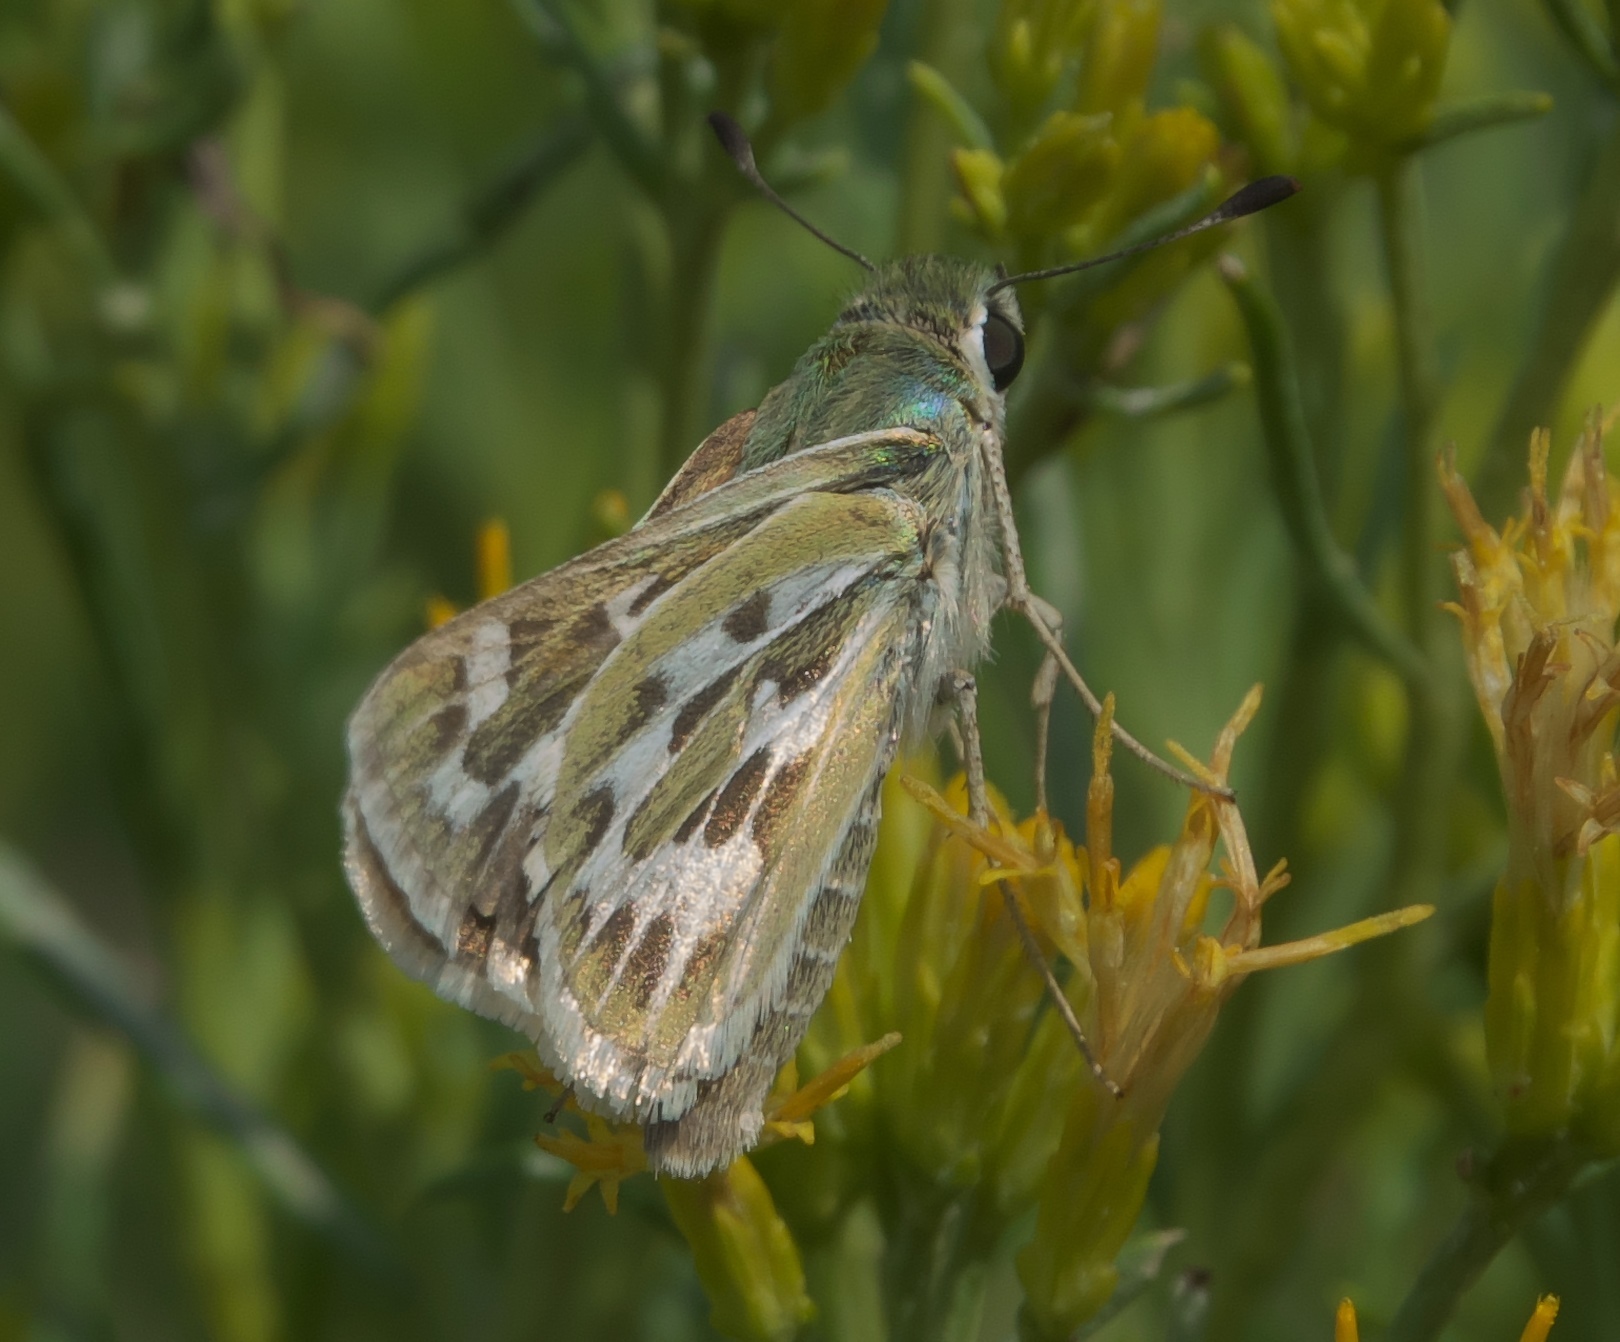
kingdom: Animalia
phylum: Arthropoda
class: Insecta
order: Lepidoptera
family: Hesperiidae
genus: Hesperia
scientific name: Hesperia uncas
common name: Uncas skipper
